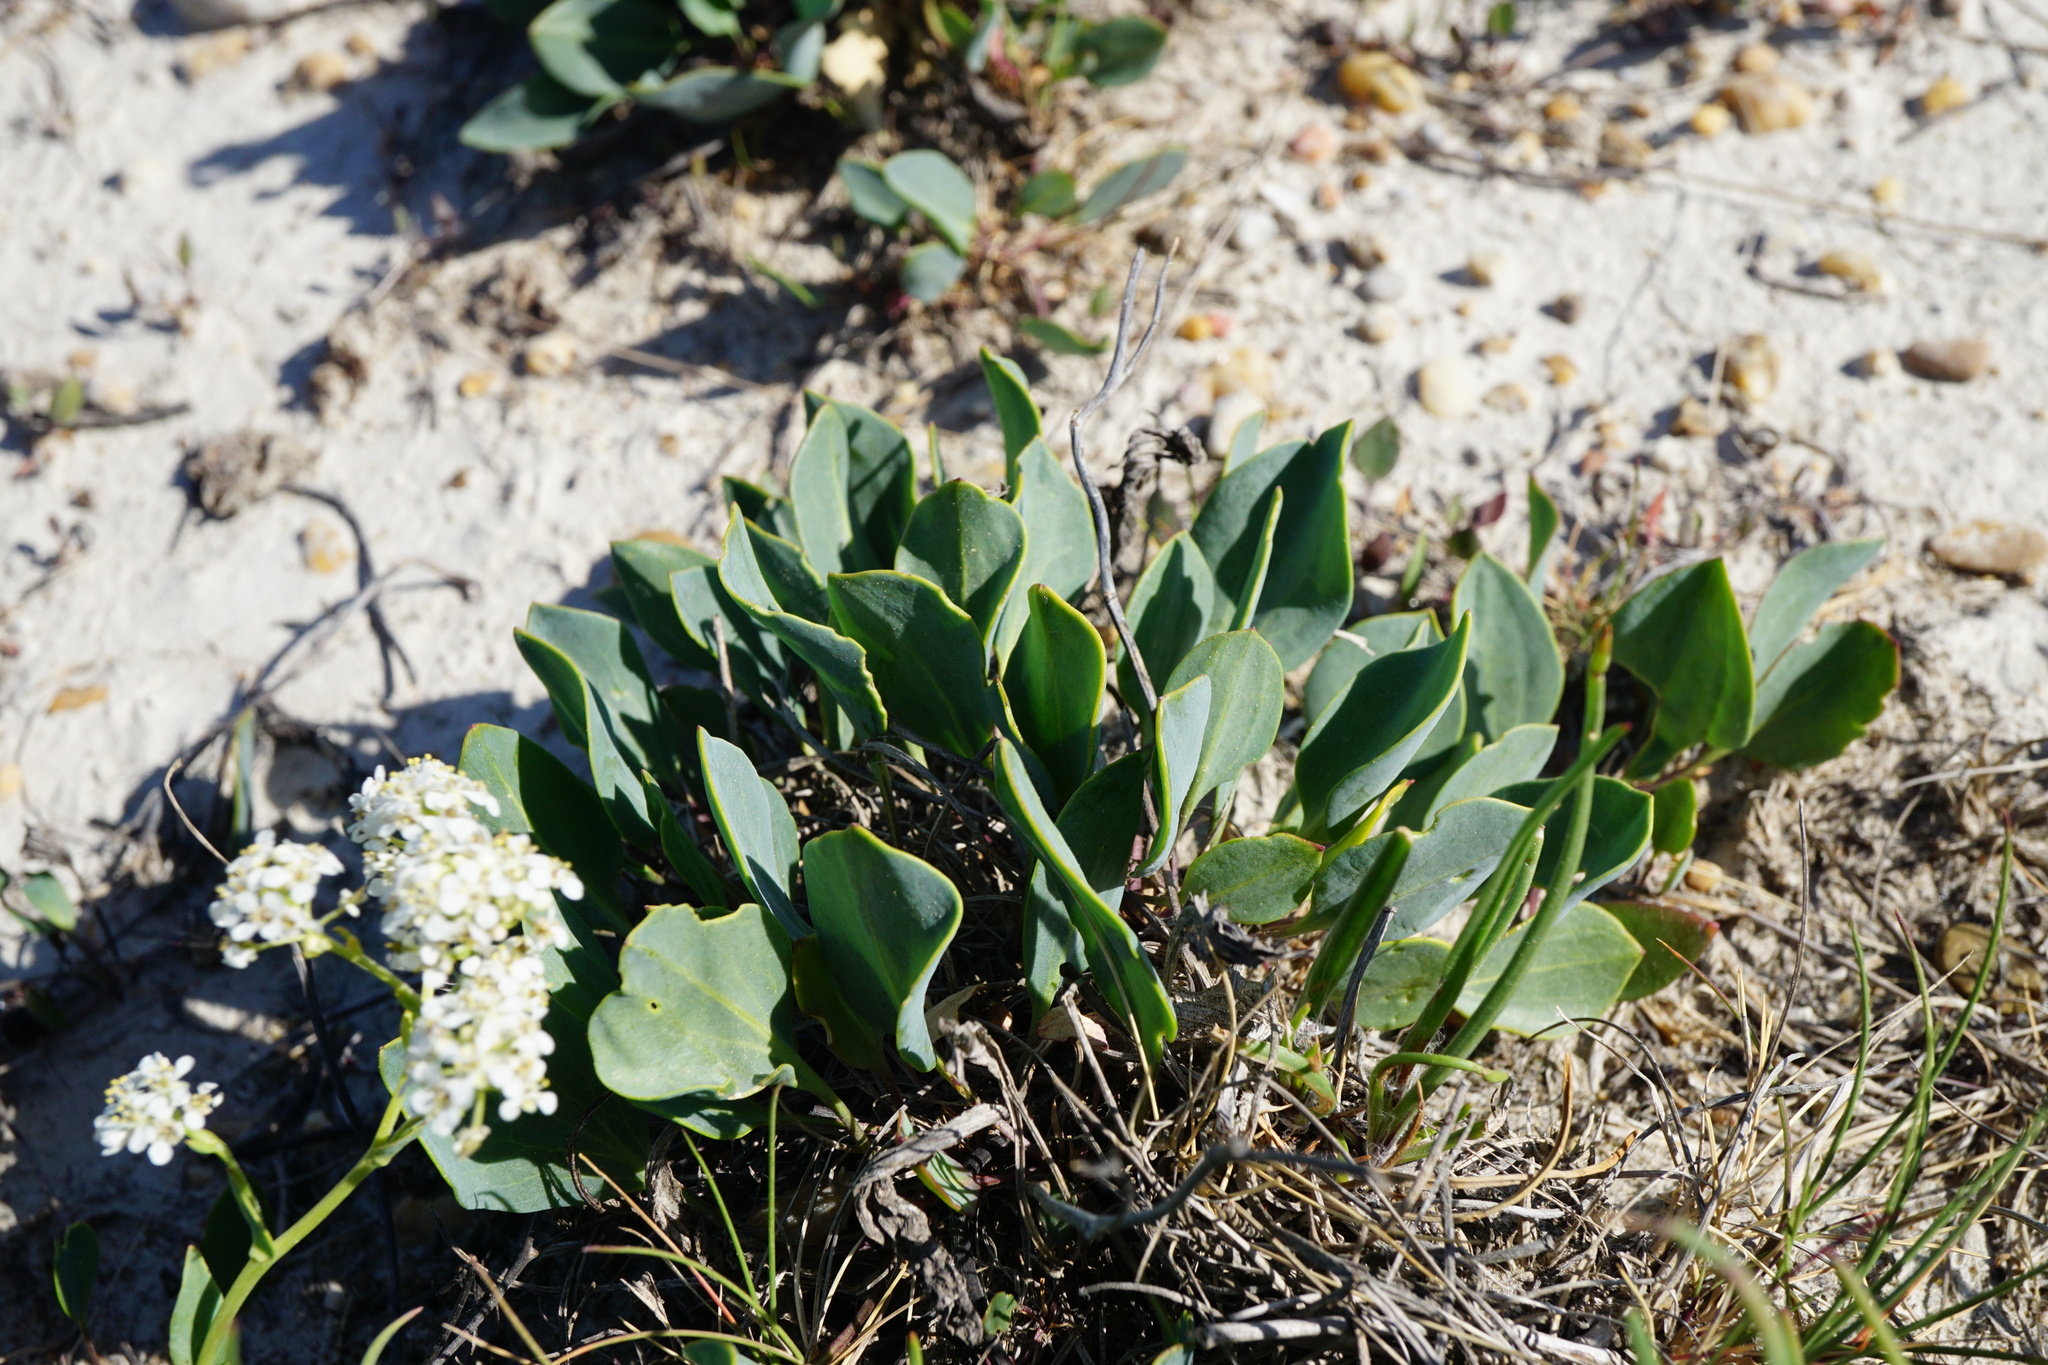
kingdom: Plantae
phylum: Tracheophyta
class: Magnoliopsida
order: Brassicales
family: Brassicaceae
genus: Lepidium
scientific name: Lepidium cartilagineum
